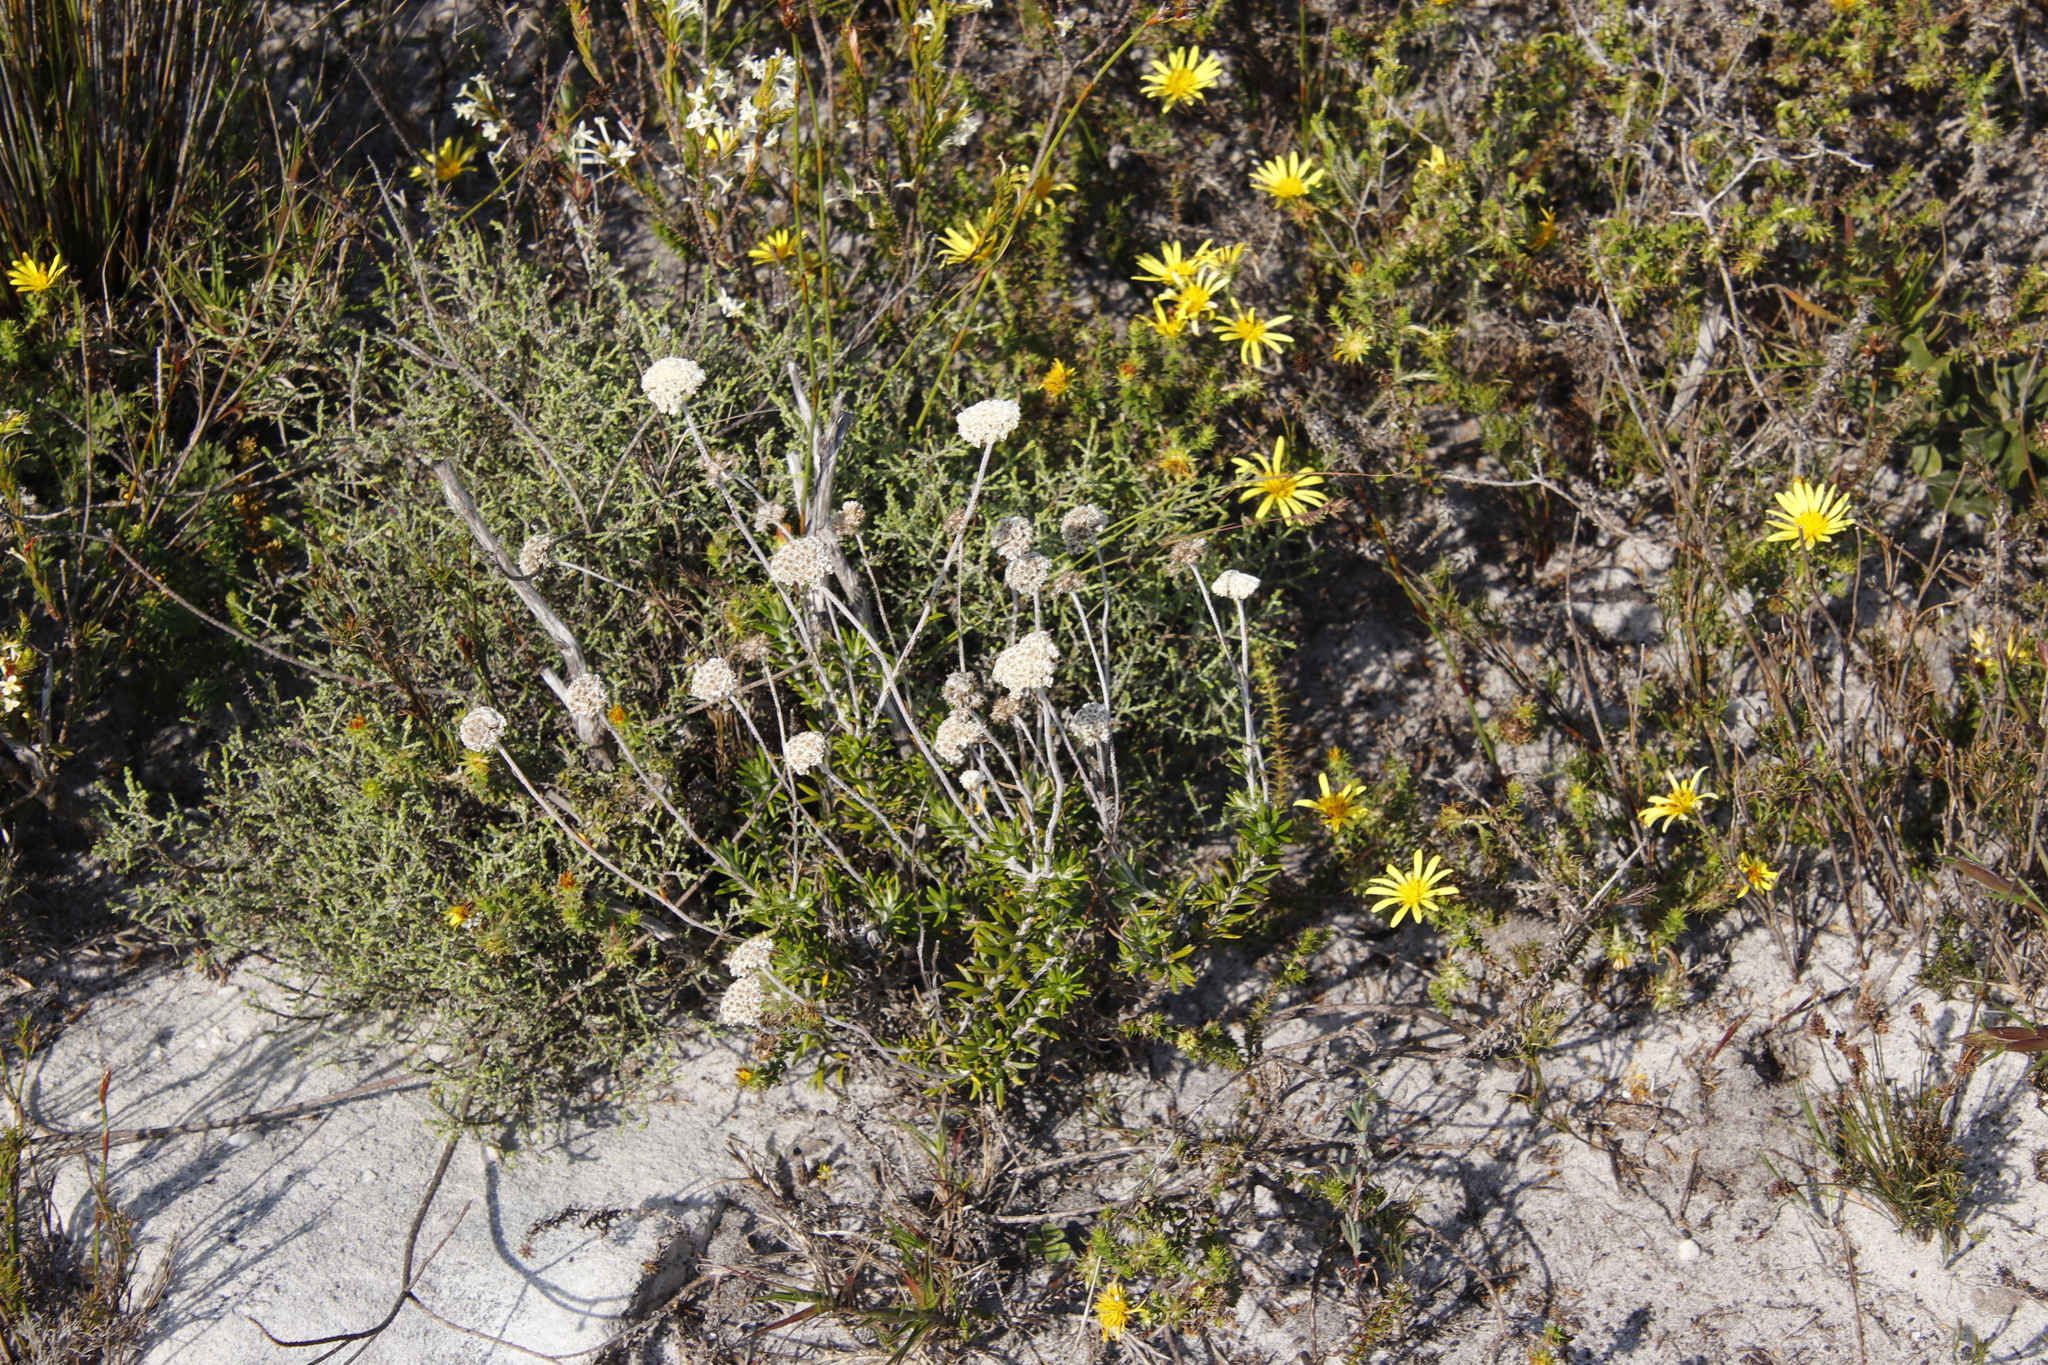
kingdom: Plantae
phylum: Tracheophyta
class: Magnoliopsida
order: Asterales
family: Asteraceae
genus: Anaxeton
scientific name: Anaxeton laeve
